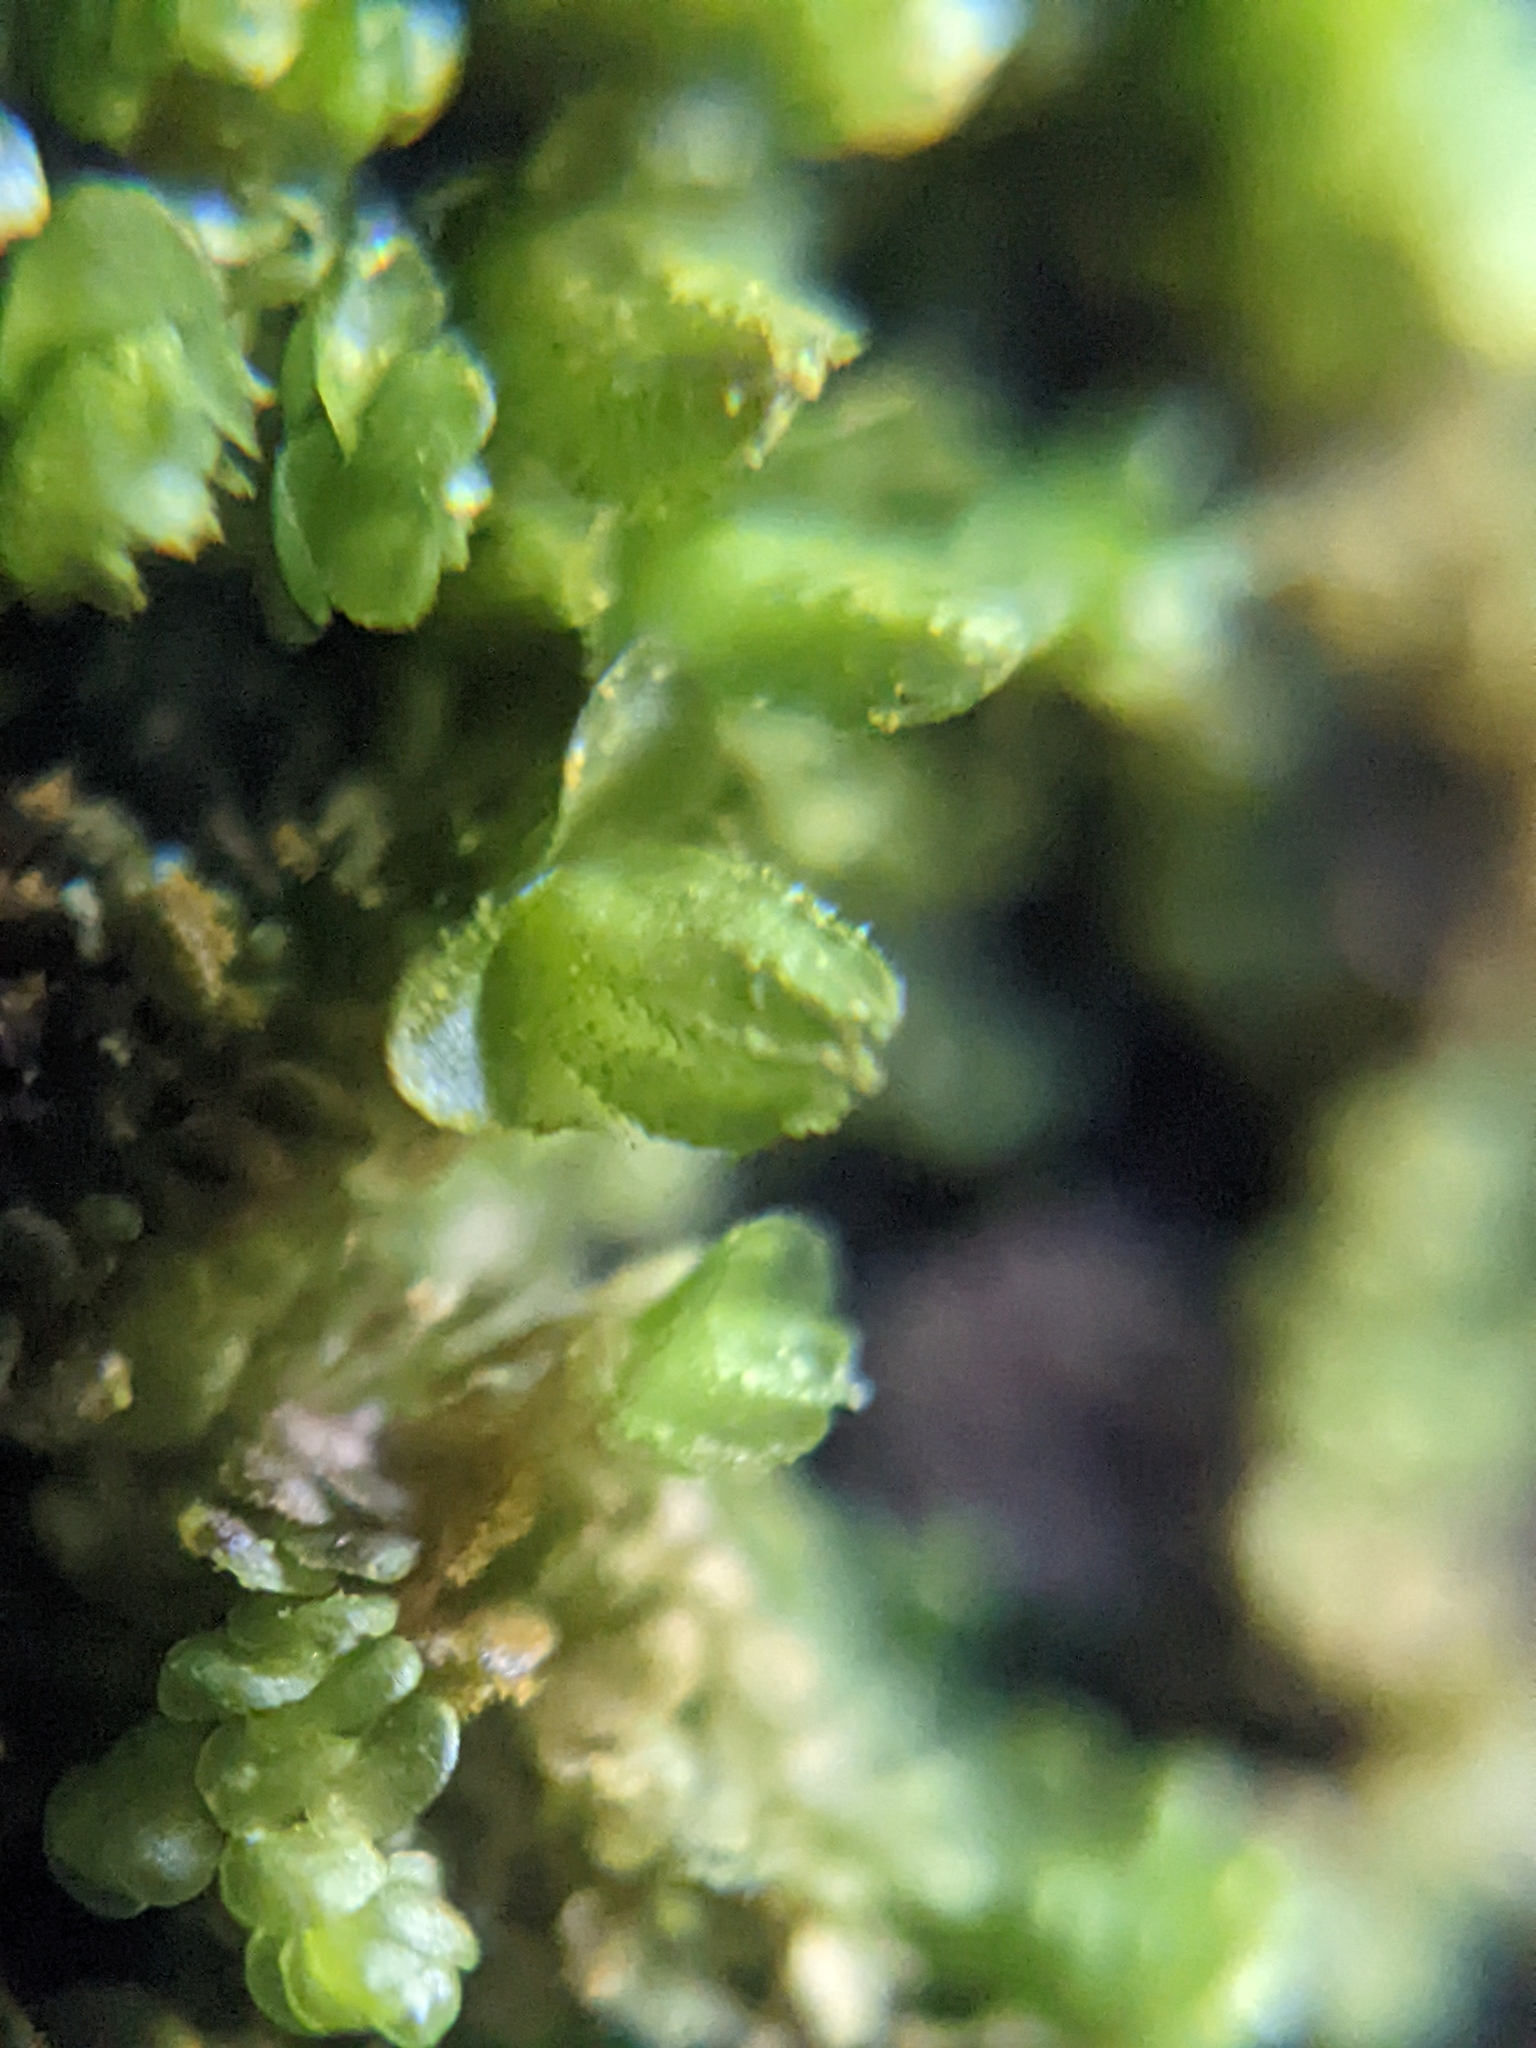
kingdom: Plantae
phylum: Marchantiophyta
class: Jungermanniopsida
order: Porellales
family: Frullaniaceae
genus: Frullania
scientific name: Frullania dilatata
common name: Dilated scalewort
